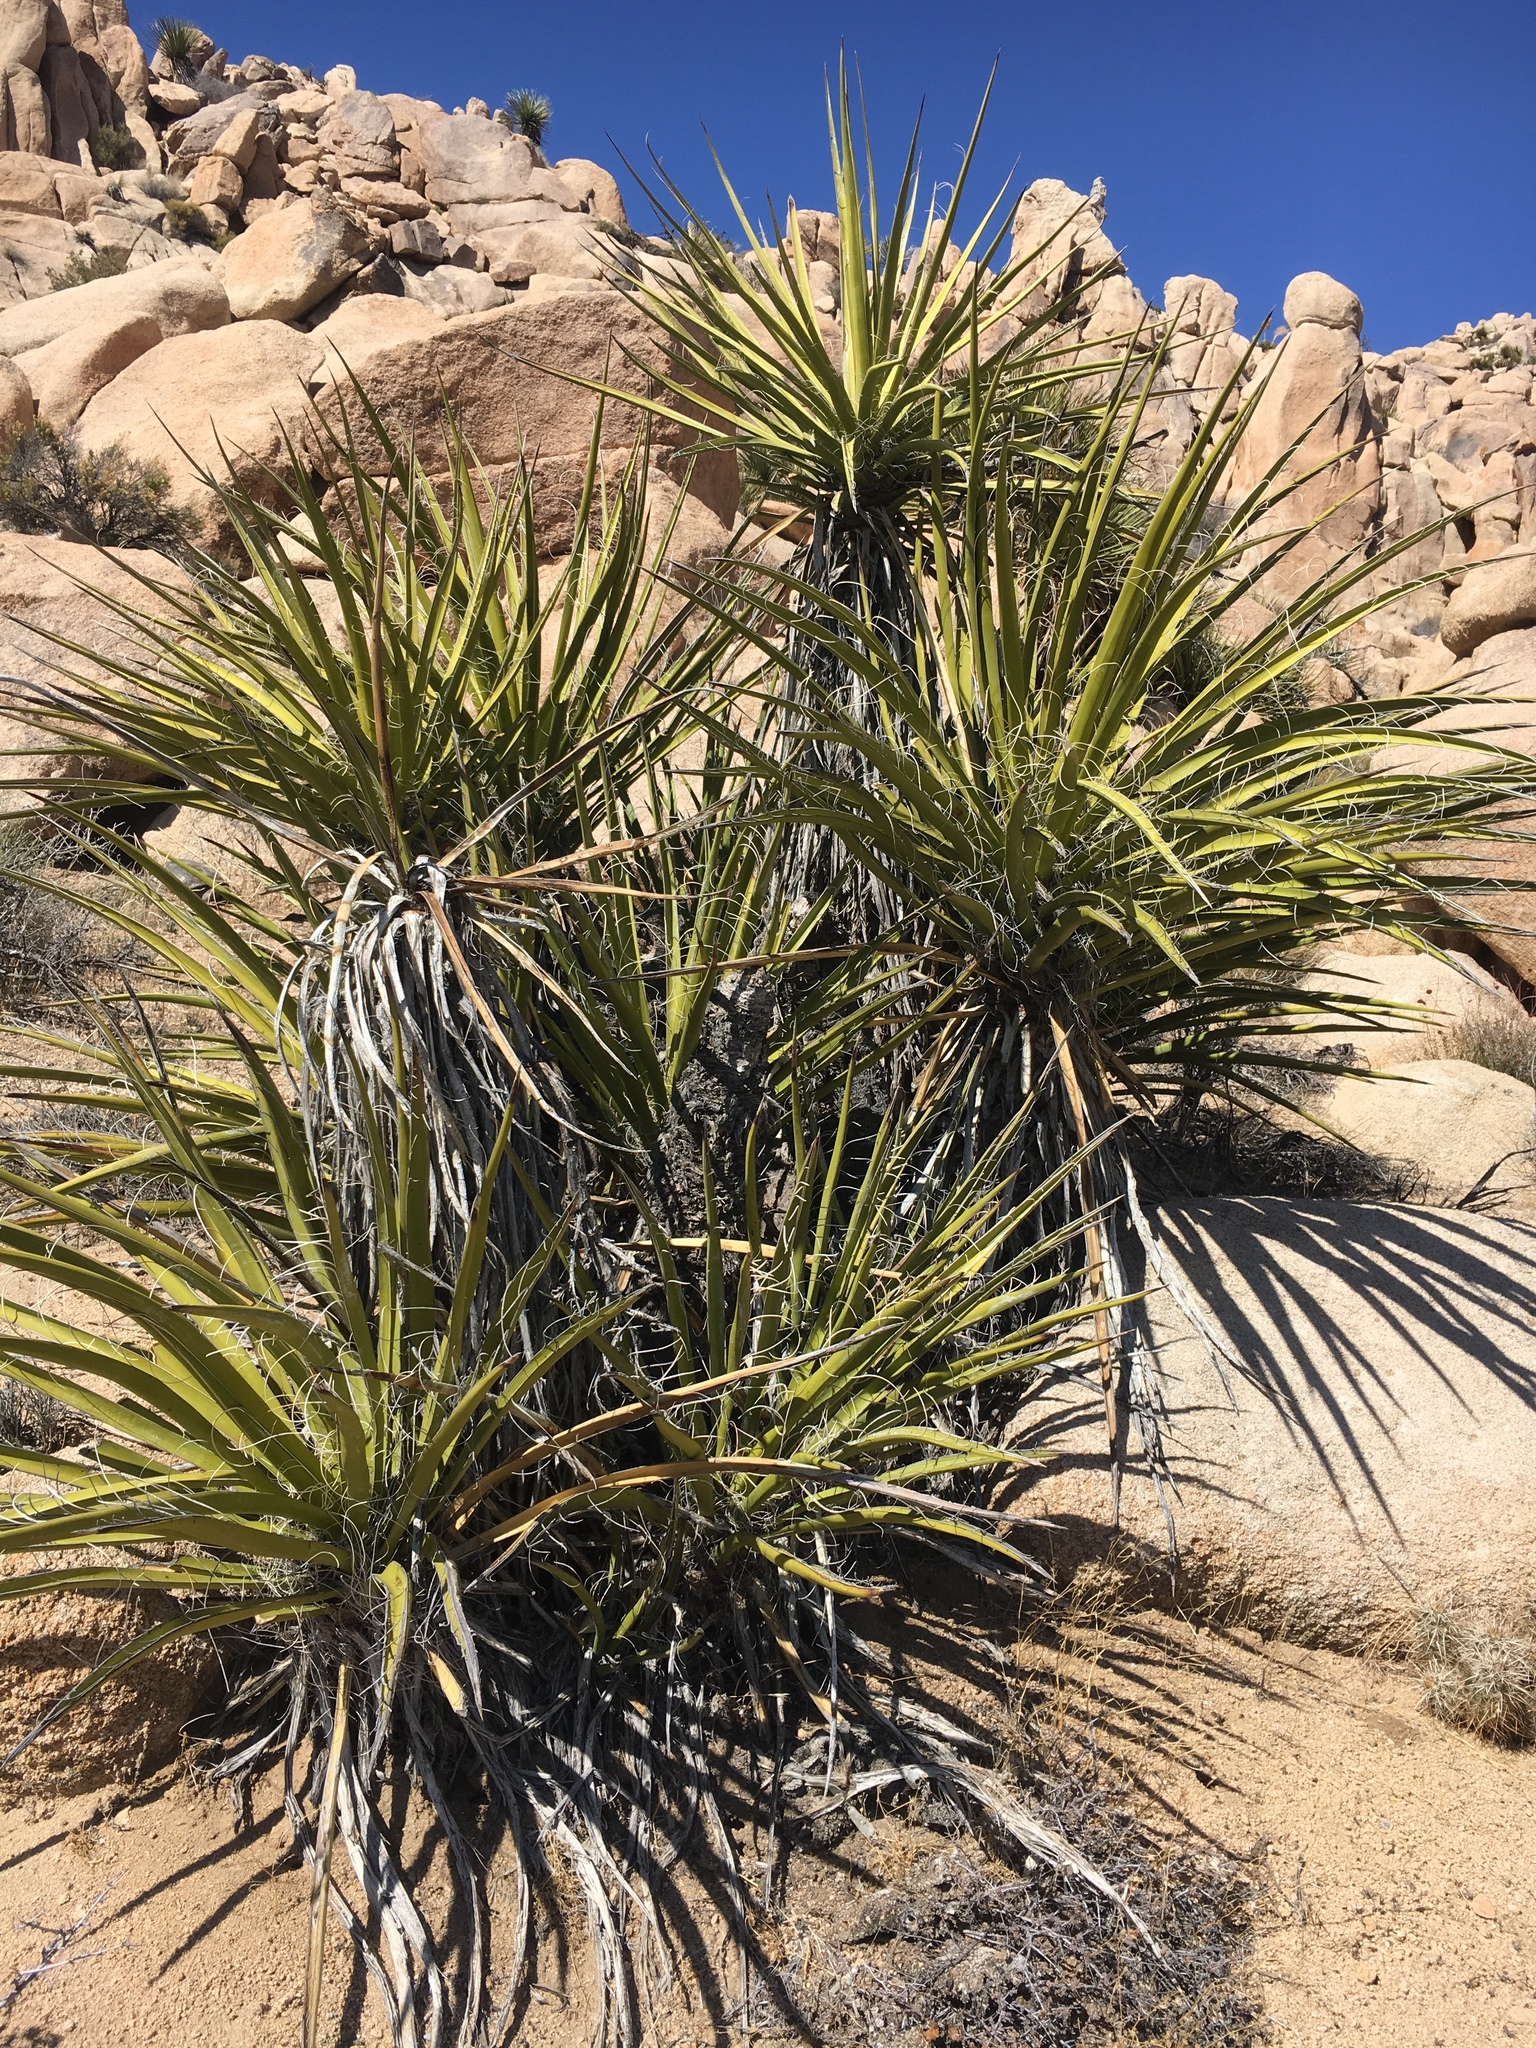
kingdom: Plantae
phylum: Tracheophyta
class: Liliopsida
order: Asparagales
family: Asparagaceae
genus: Yucca
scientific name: Yucca schidigera
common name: Mojave yucca
